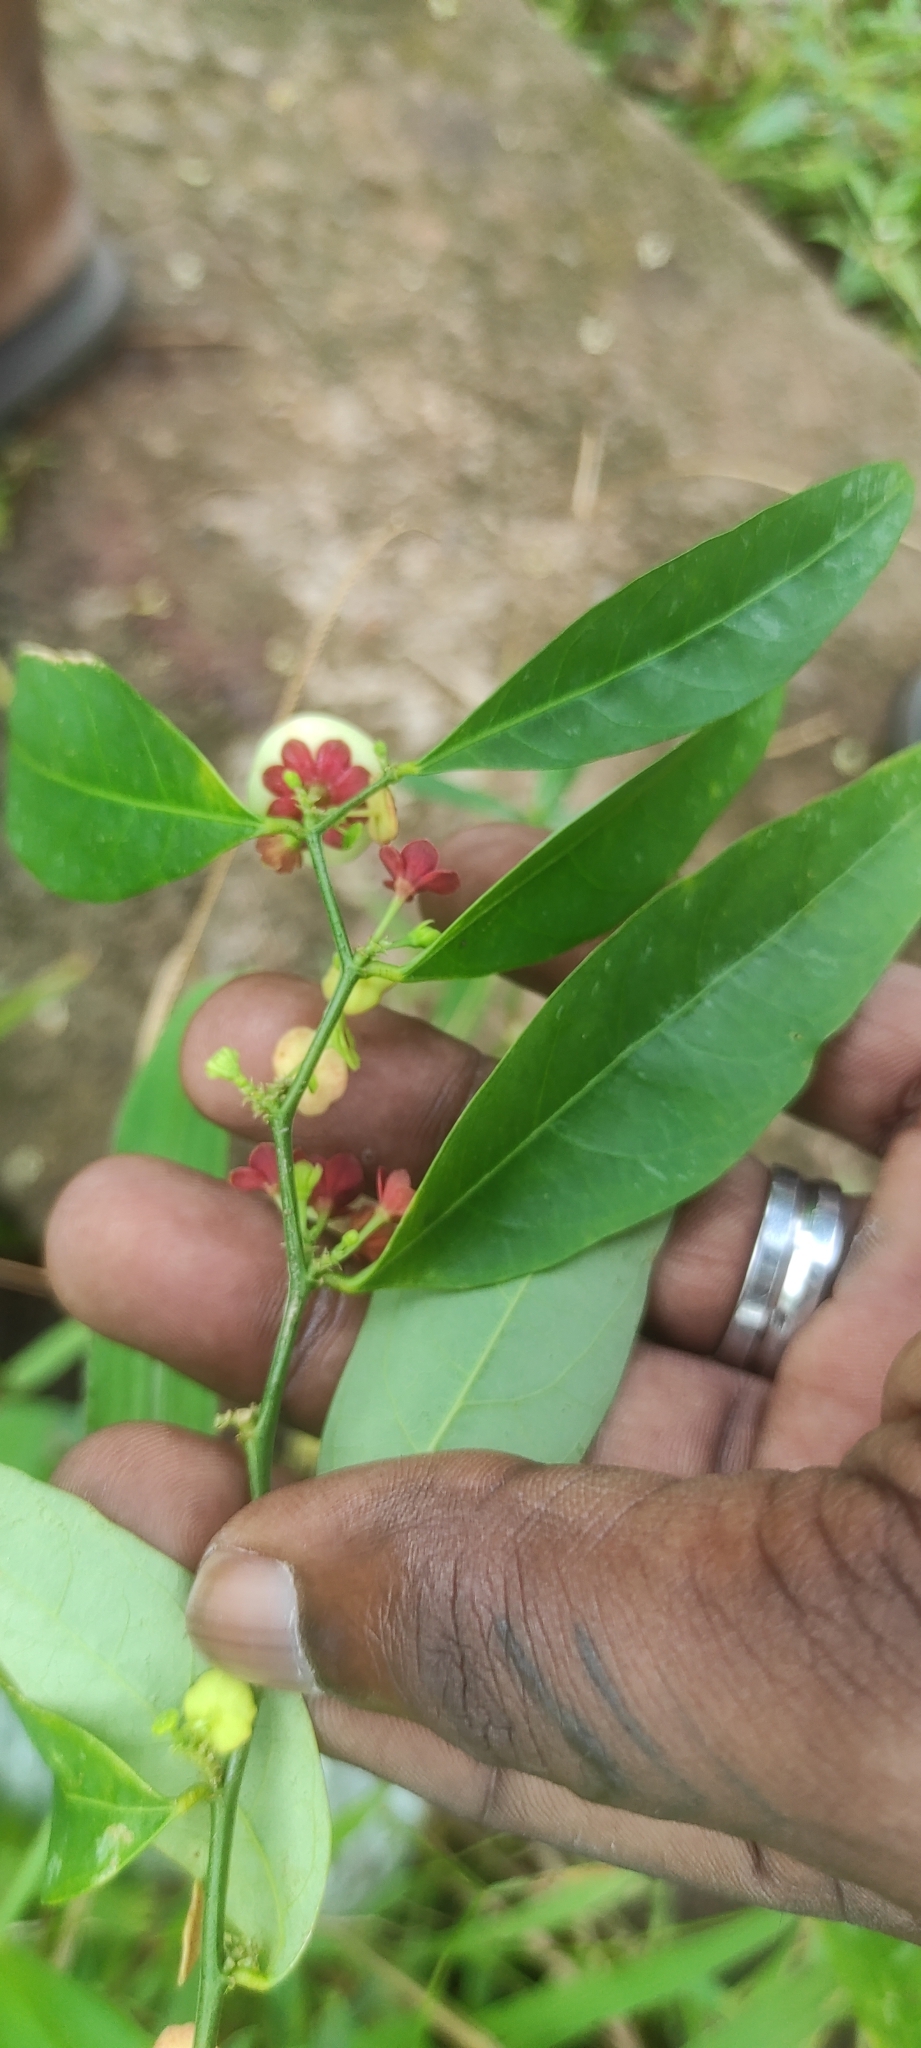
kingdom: Plantae
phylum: Tracheophyta
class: Magnoliopsida
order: Malpighiales
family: Phyllanthaceae
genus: Breynia
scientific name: Breynia androgyna
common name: Star gooseberry
